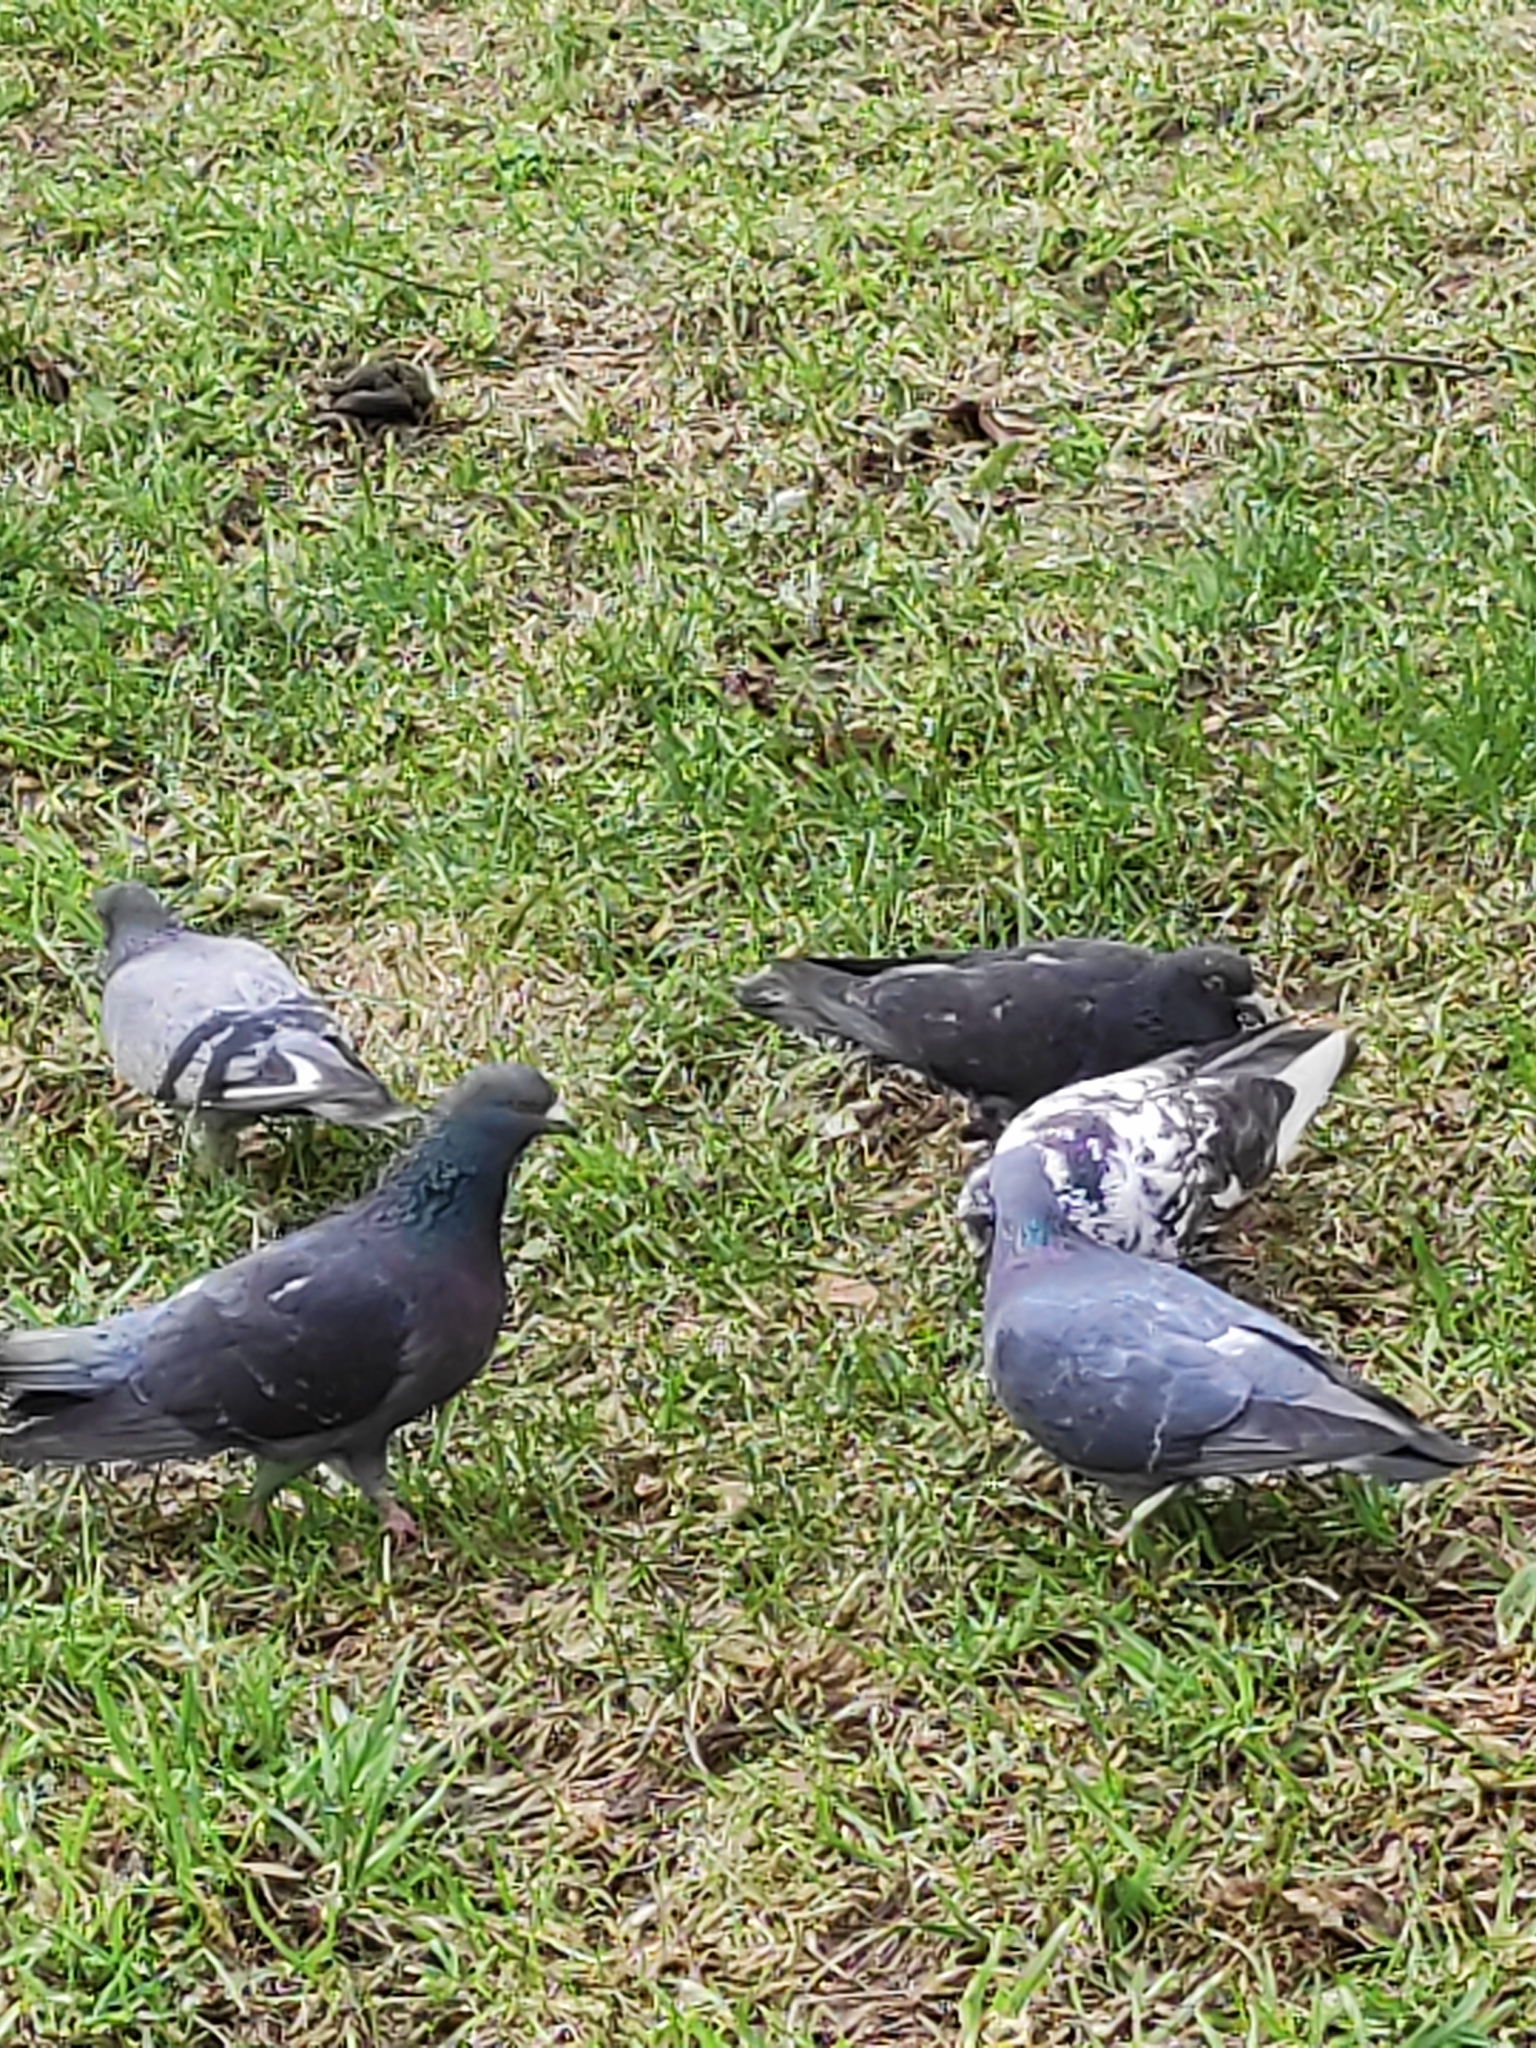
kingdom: Animalia
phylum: Chordata
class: Aves
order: Columbiformes
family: Columbidae
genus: Columba
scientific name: Columba livia
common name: Rock pigeon
